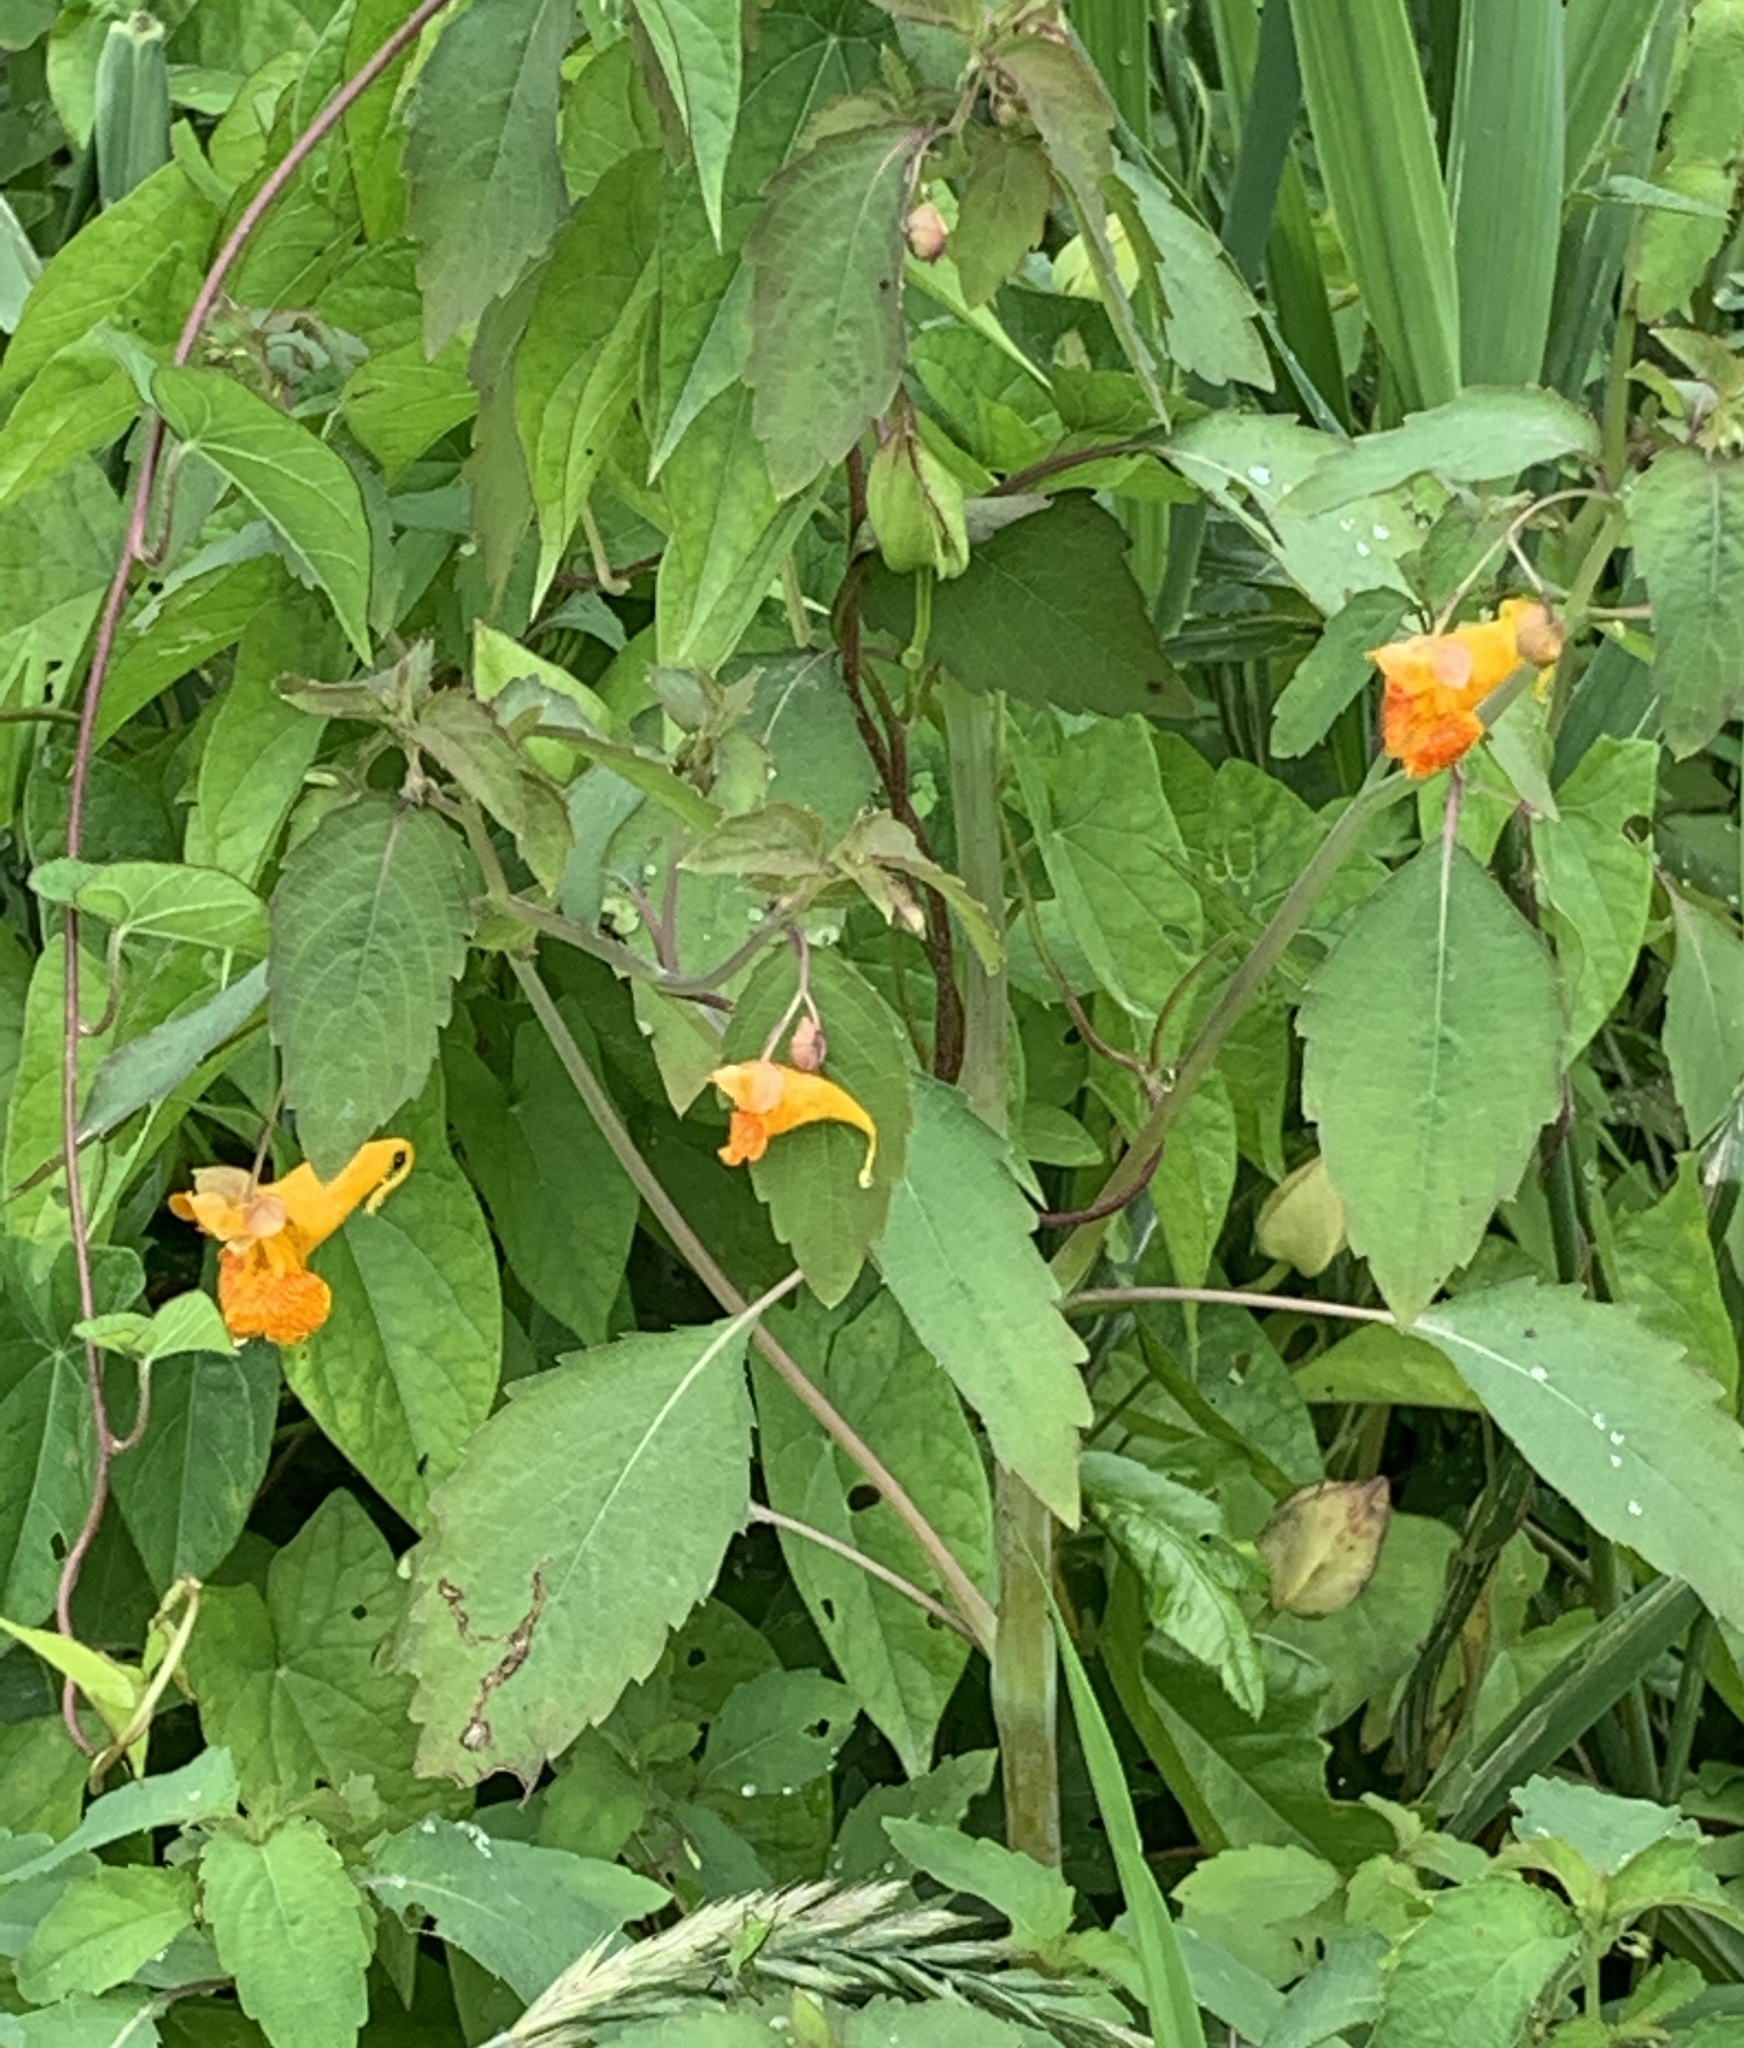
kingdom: Plantae
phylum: Tracheophyta
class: Magnoliopsida
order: Ericales
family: Balsaminaceae
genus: Impatiens
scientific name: Impatiens capensis
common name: Orange balsam
